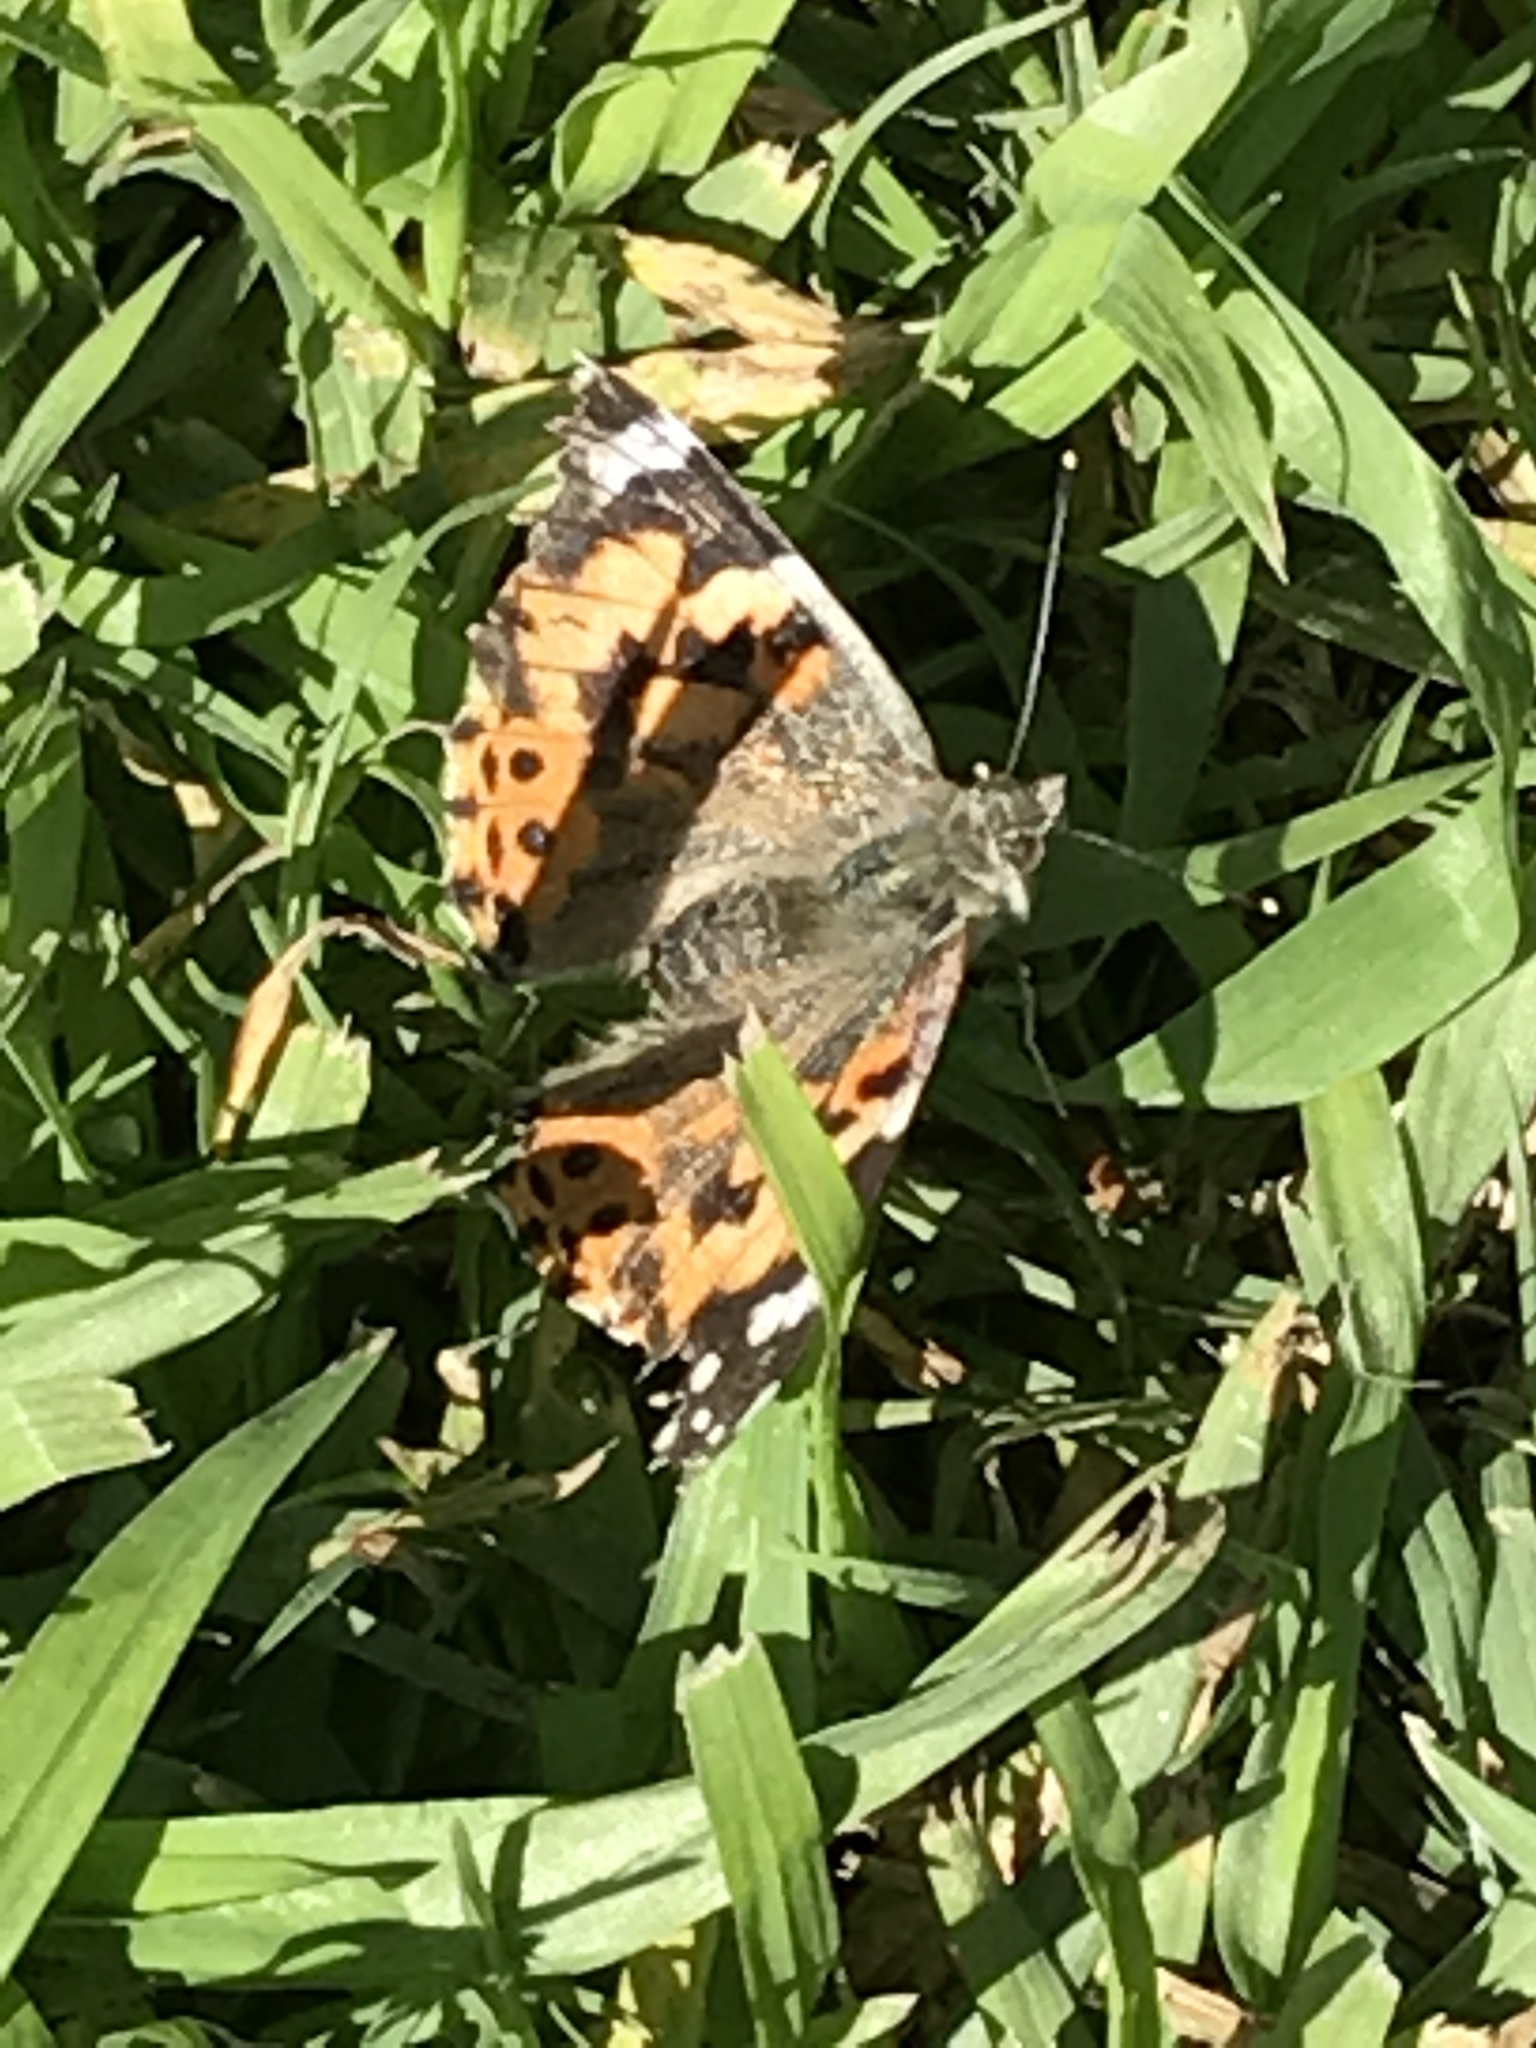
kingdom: Animalia
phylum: Arthropoda
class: Insecta
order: Lepidoptera
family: Nymphalidae
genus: Vanessa
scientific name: Vanessa cardui
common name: Painted lady
